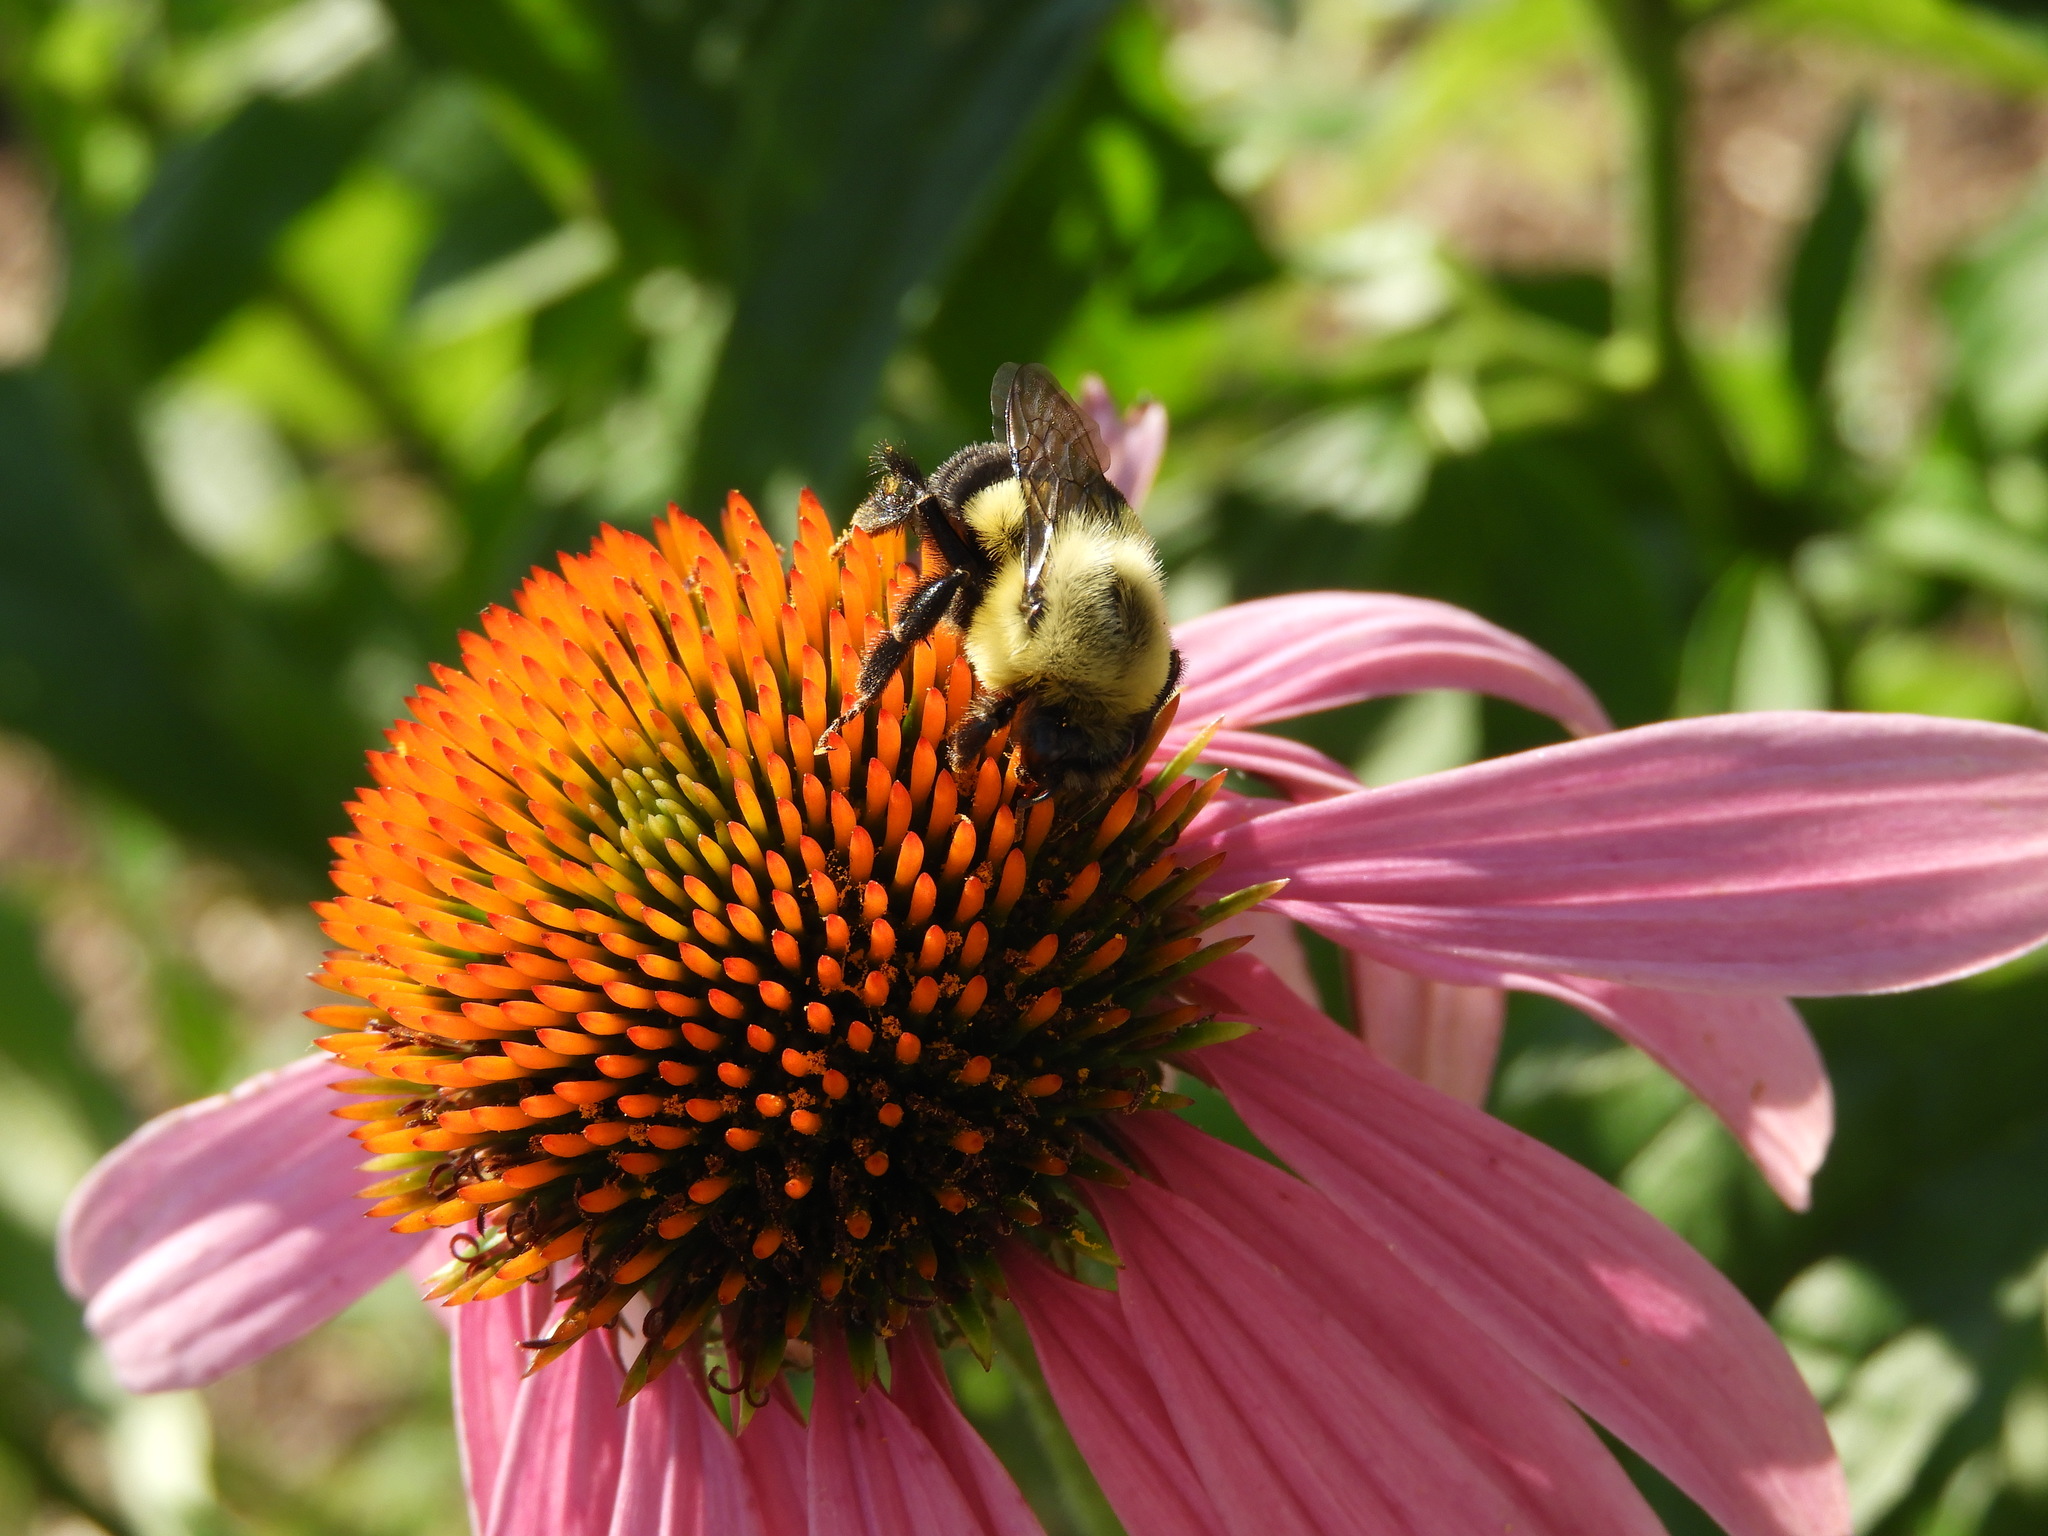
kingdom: Animalia
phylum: Arthropoda
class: Insecta
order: Hymenoptera
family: Apidae
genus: Bombus
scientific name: Bombus impatiens
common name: Common eastern bumble bee
